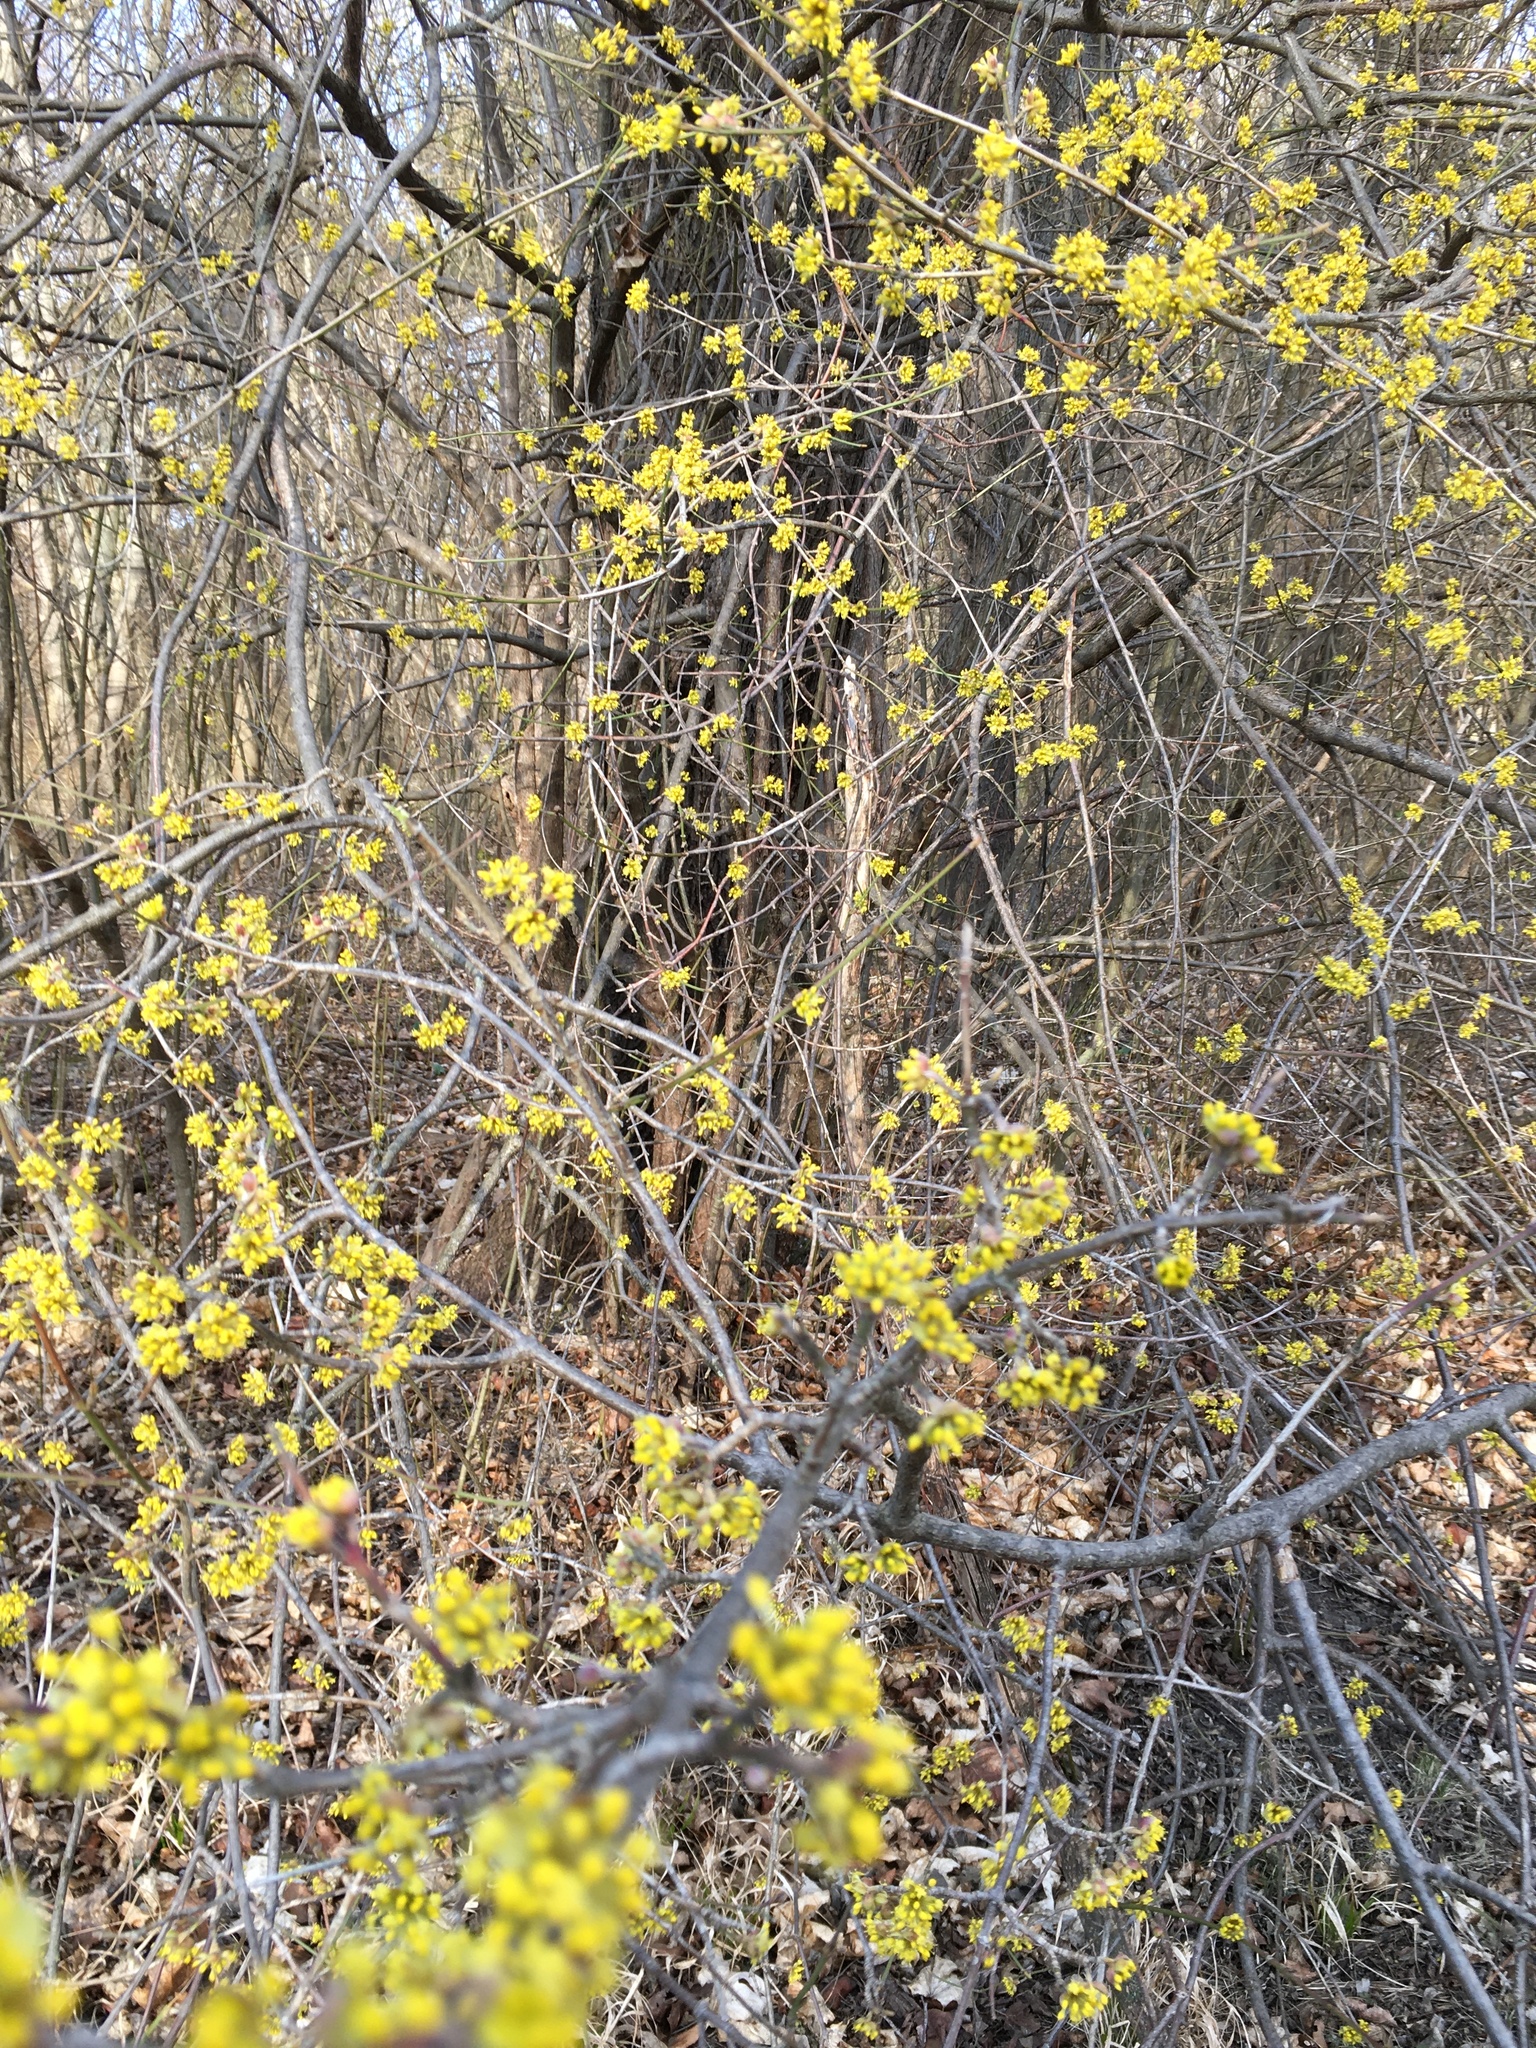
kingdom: Plantae
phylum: Tracheophyta
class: Magnoliopsida
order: Cornales
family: Cornaceae
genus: Cornus
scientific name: Cornus mas
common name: Cornelian-cherry
